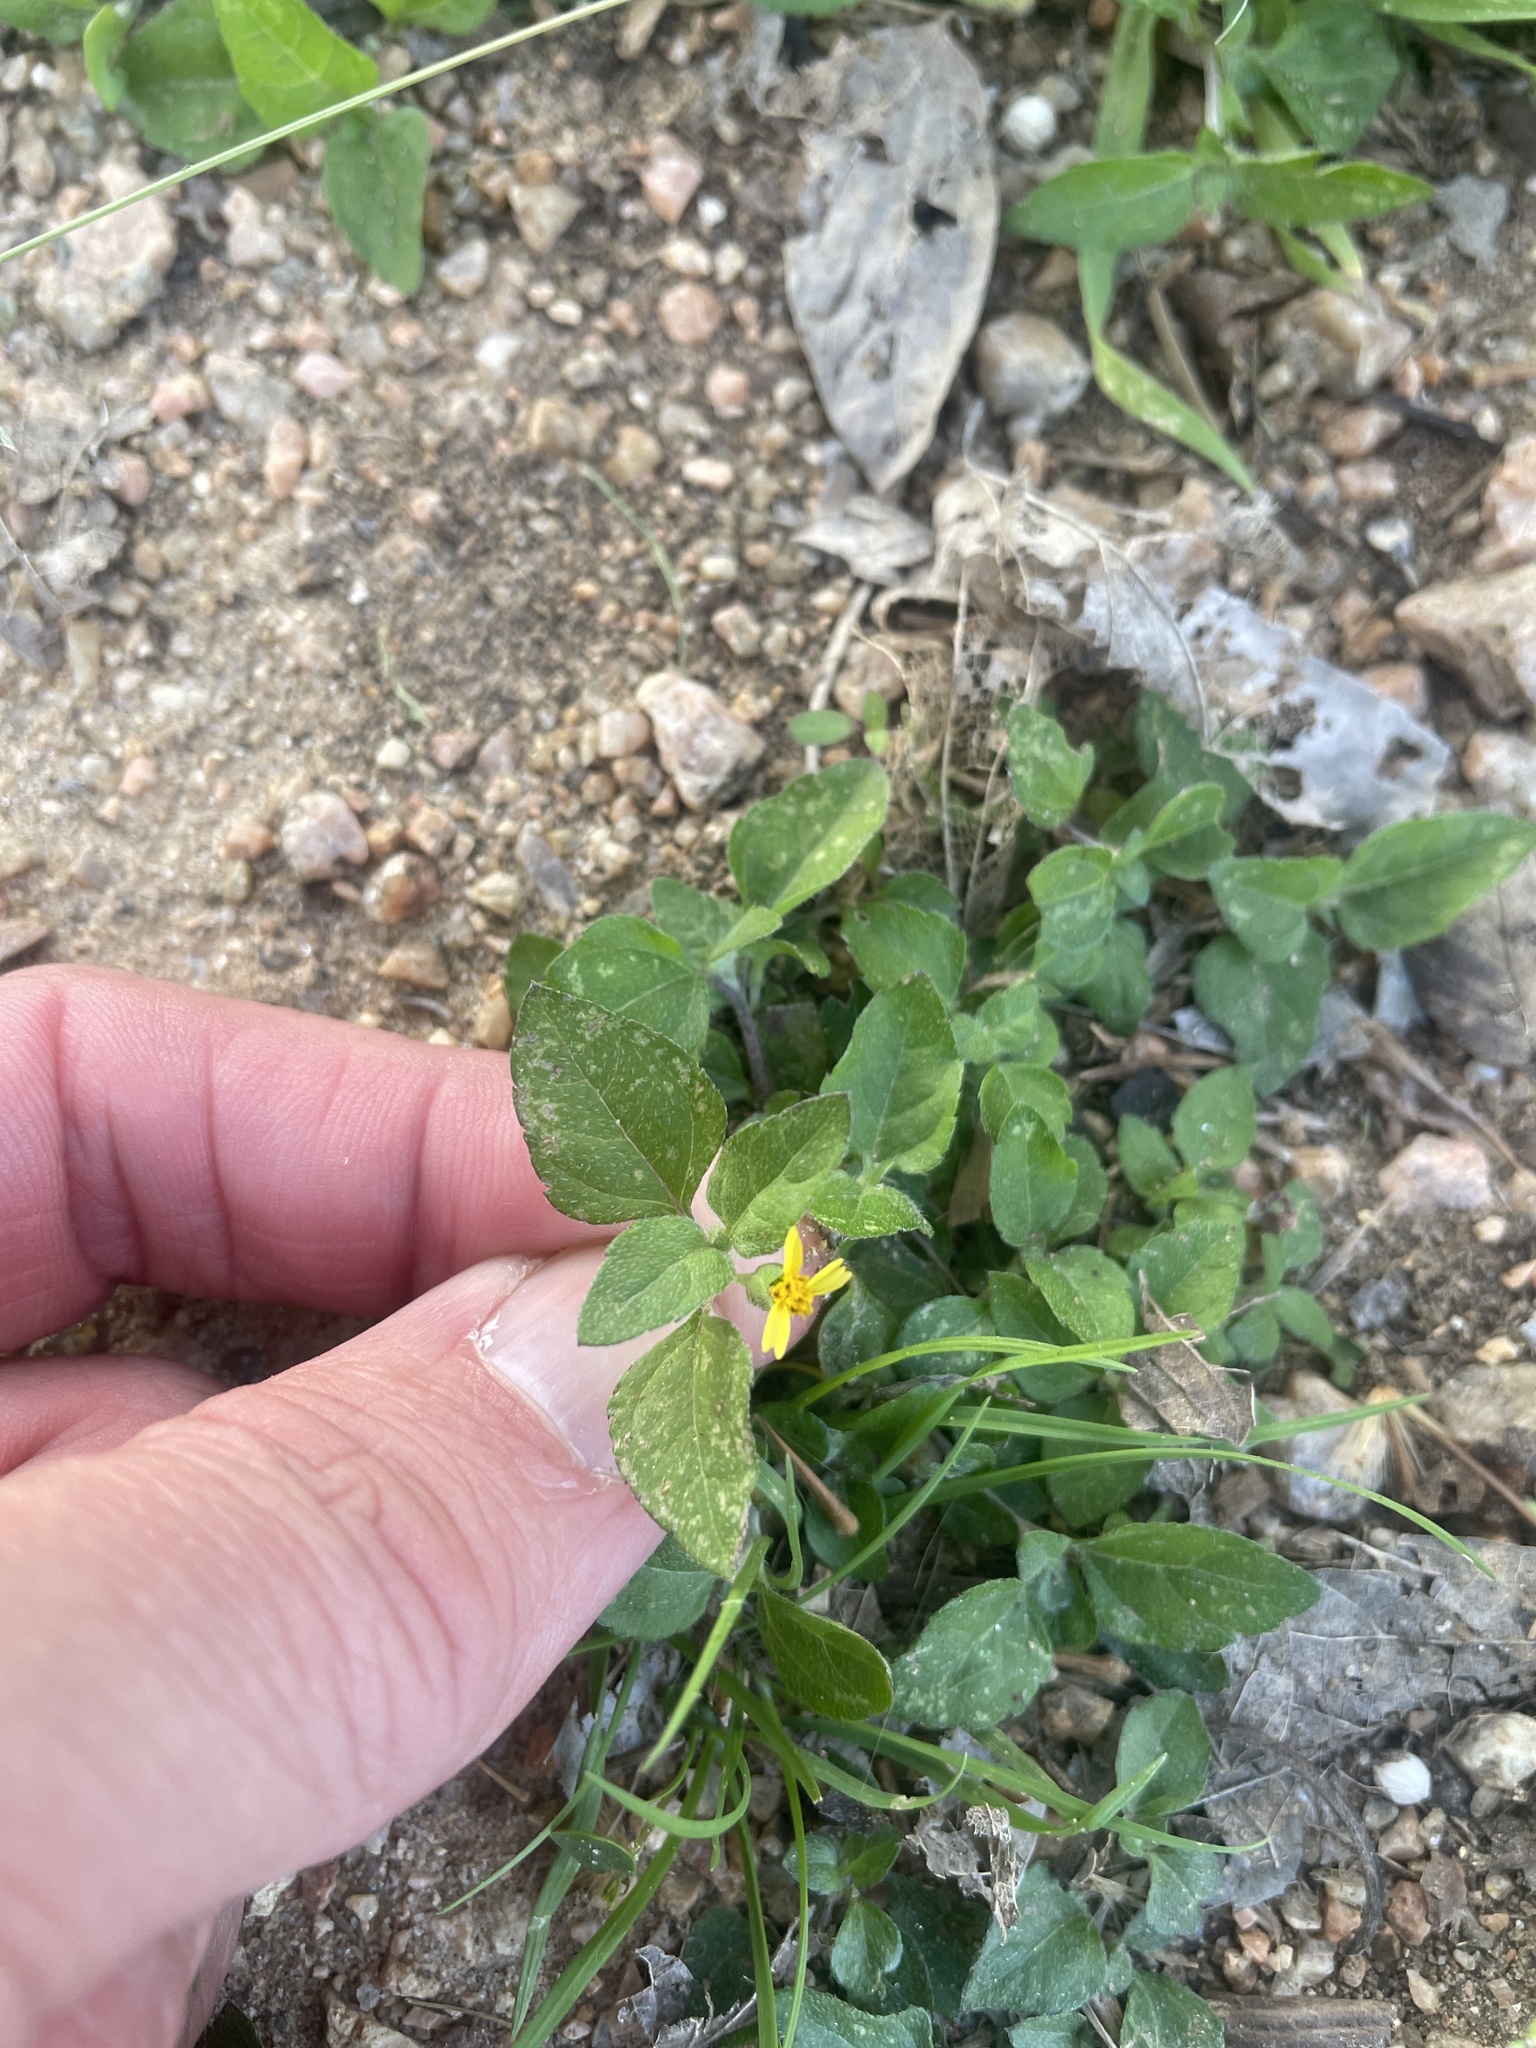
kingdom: Plantae
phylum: Tracheophyta
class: Magnoliopsida
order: Asterales
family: Asteraceae
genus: Calyptocarpus
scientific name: Calyptocarpus vialis
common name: Straggler daisy
